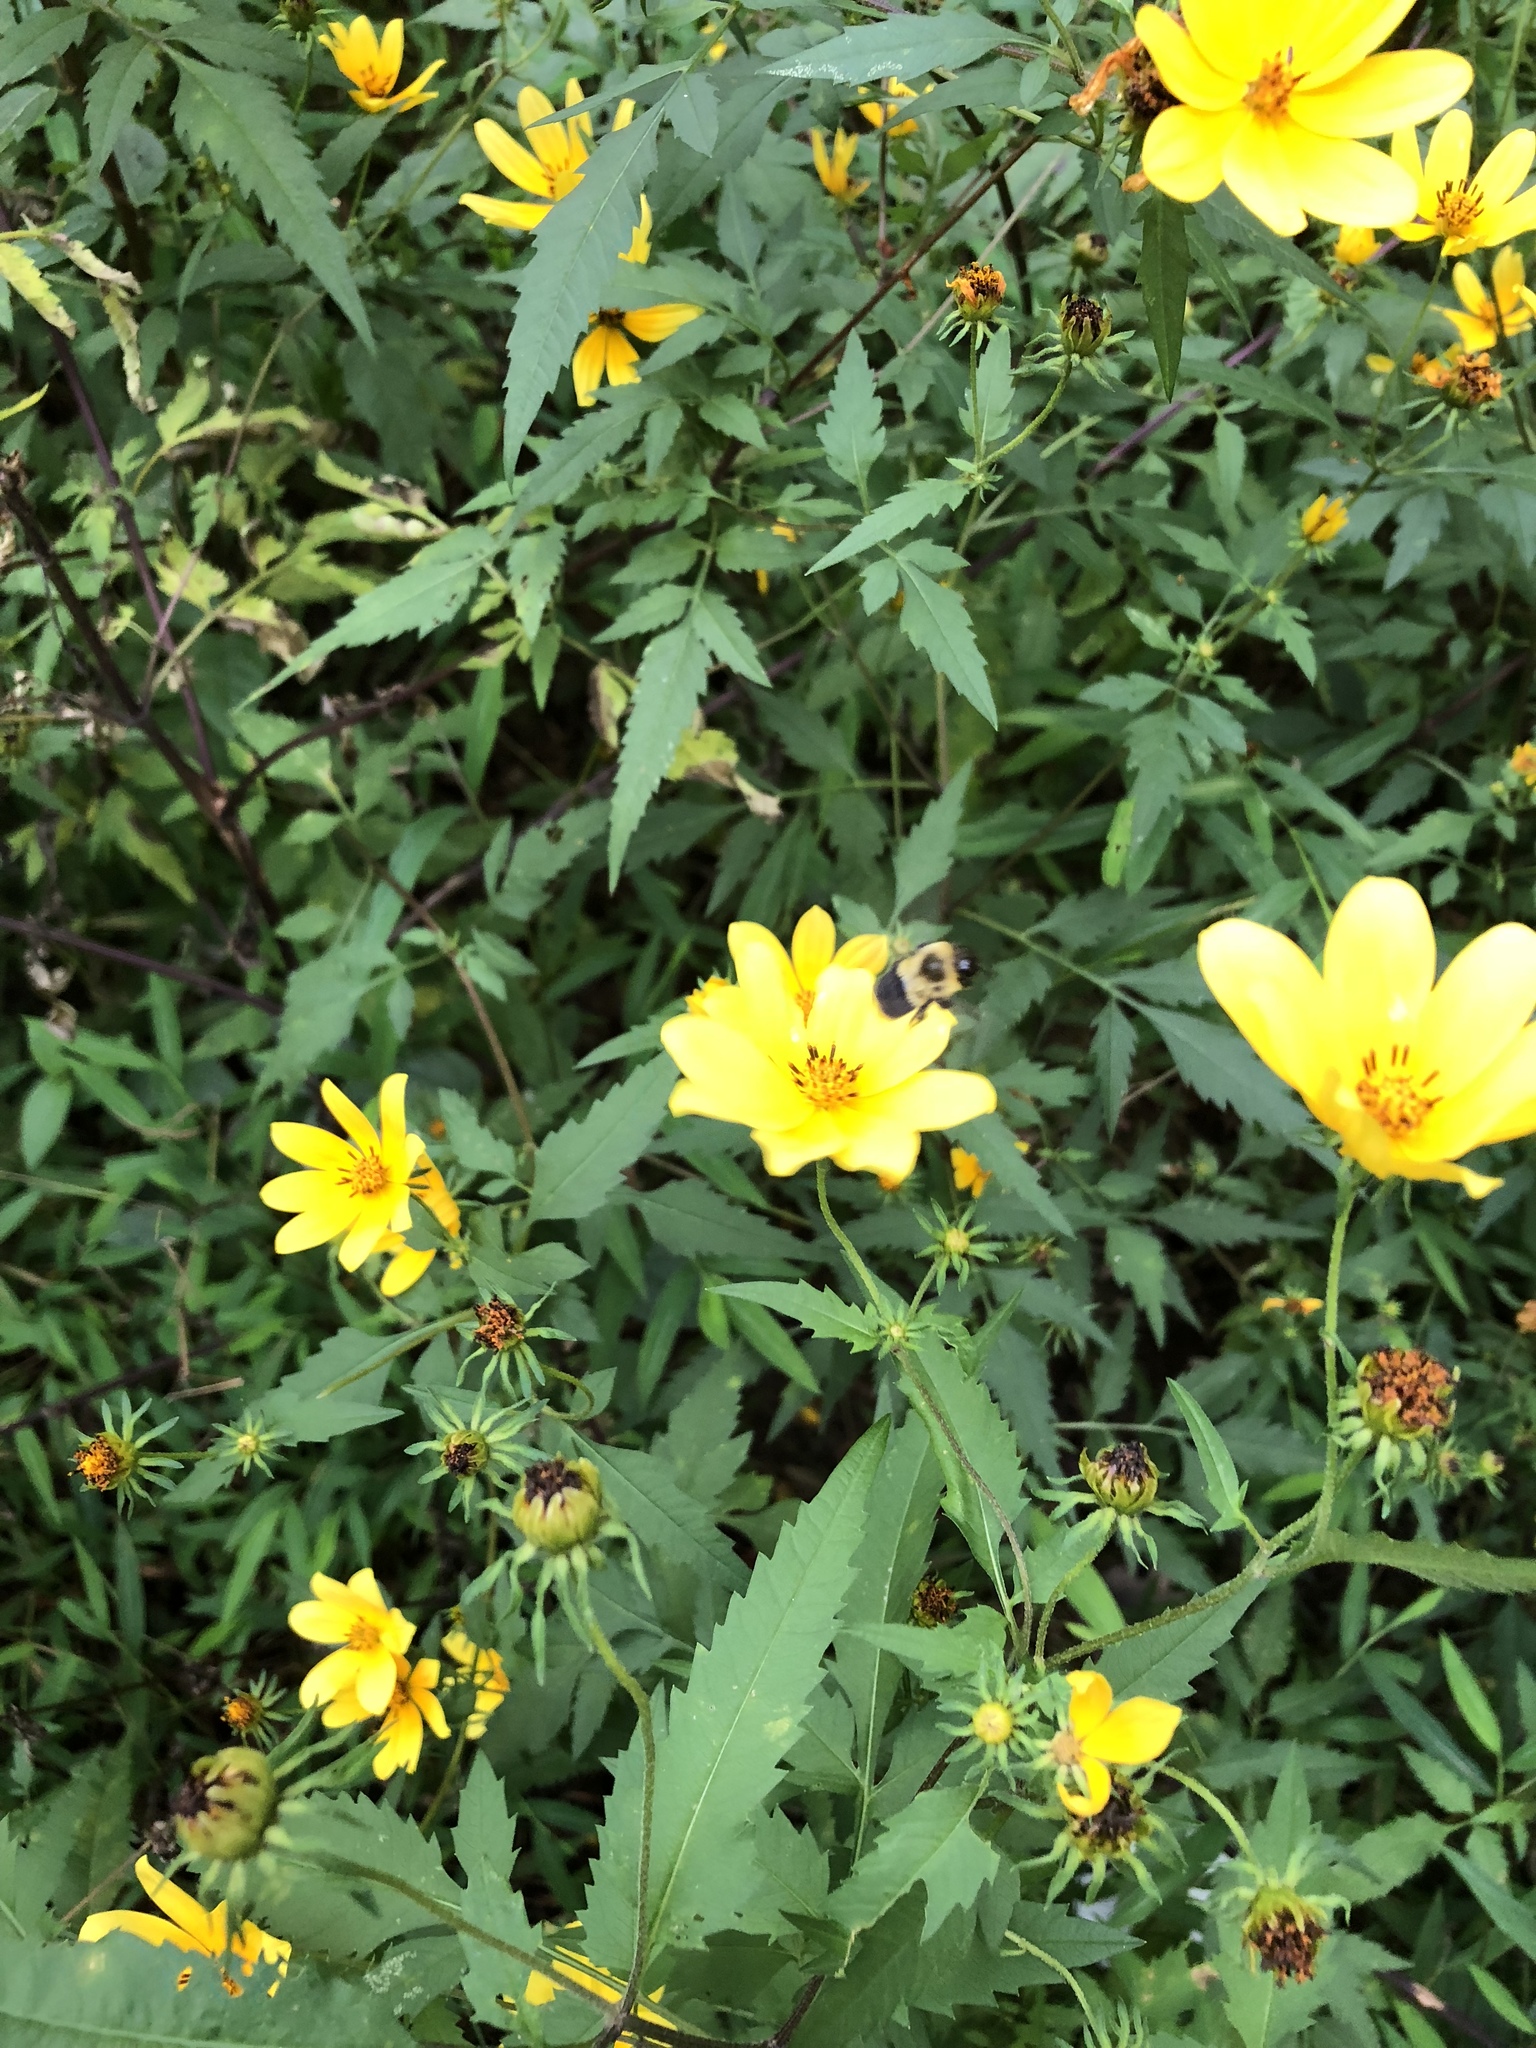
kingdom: Animalia
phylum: Arthropoda
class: Insecta
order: Hymenoptera
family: Apidae
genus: Bombus
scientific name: Bombus impatiens
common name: Common eastern bumble bee
